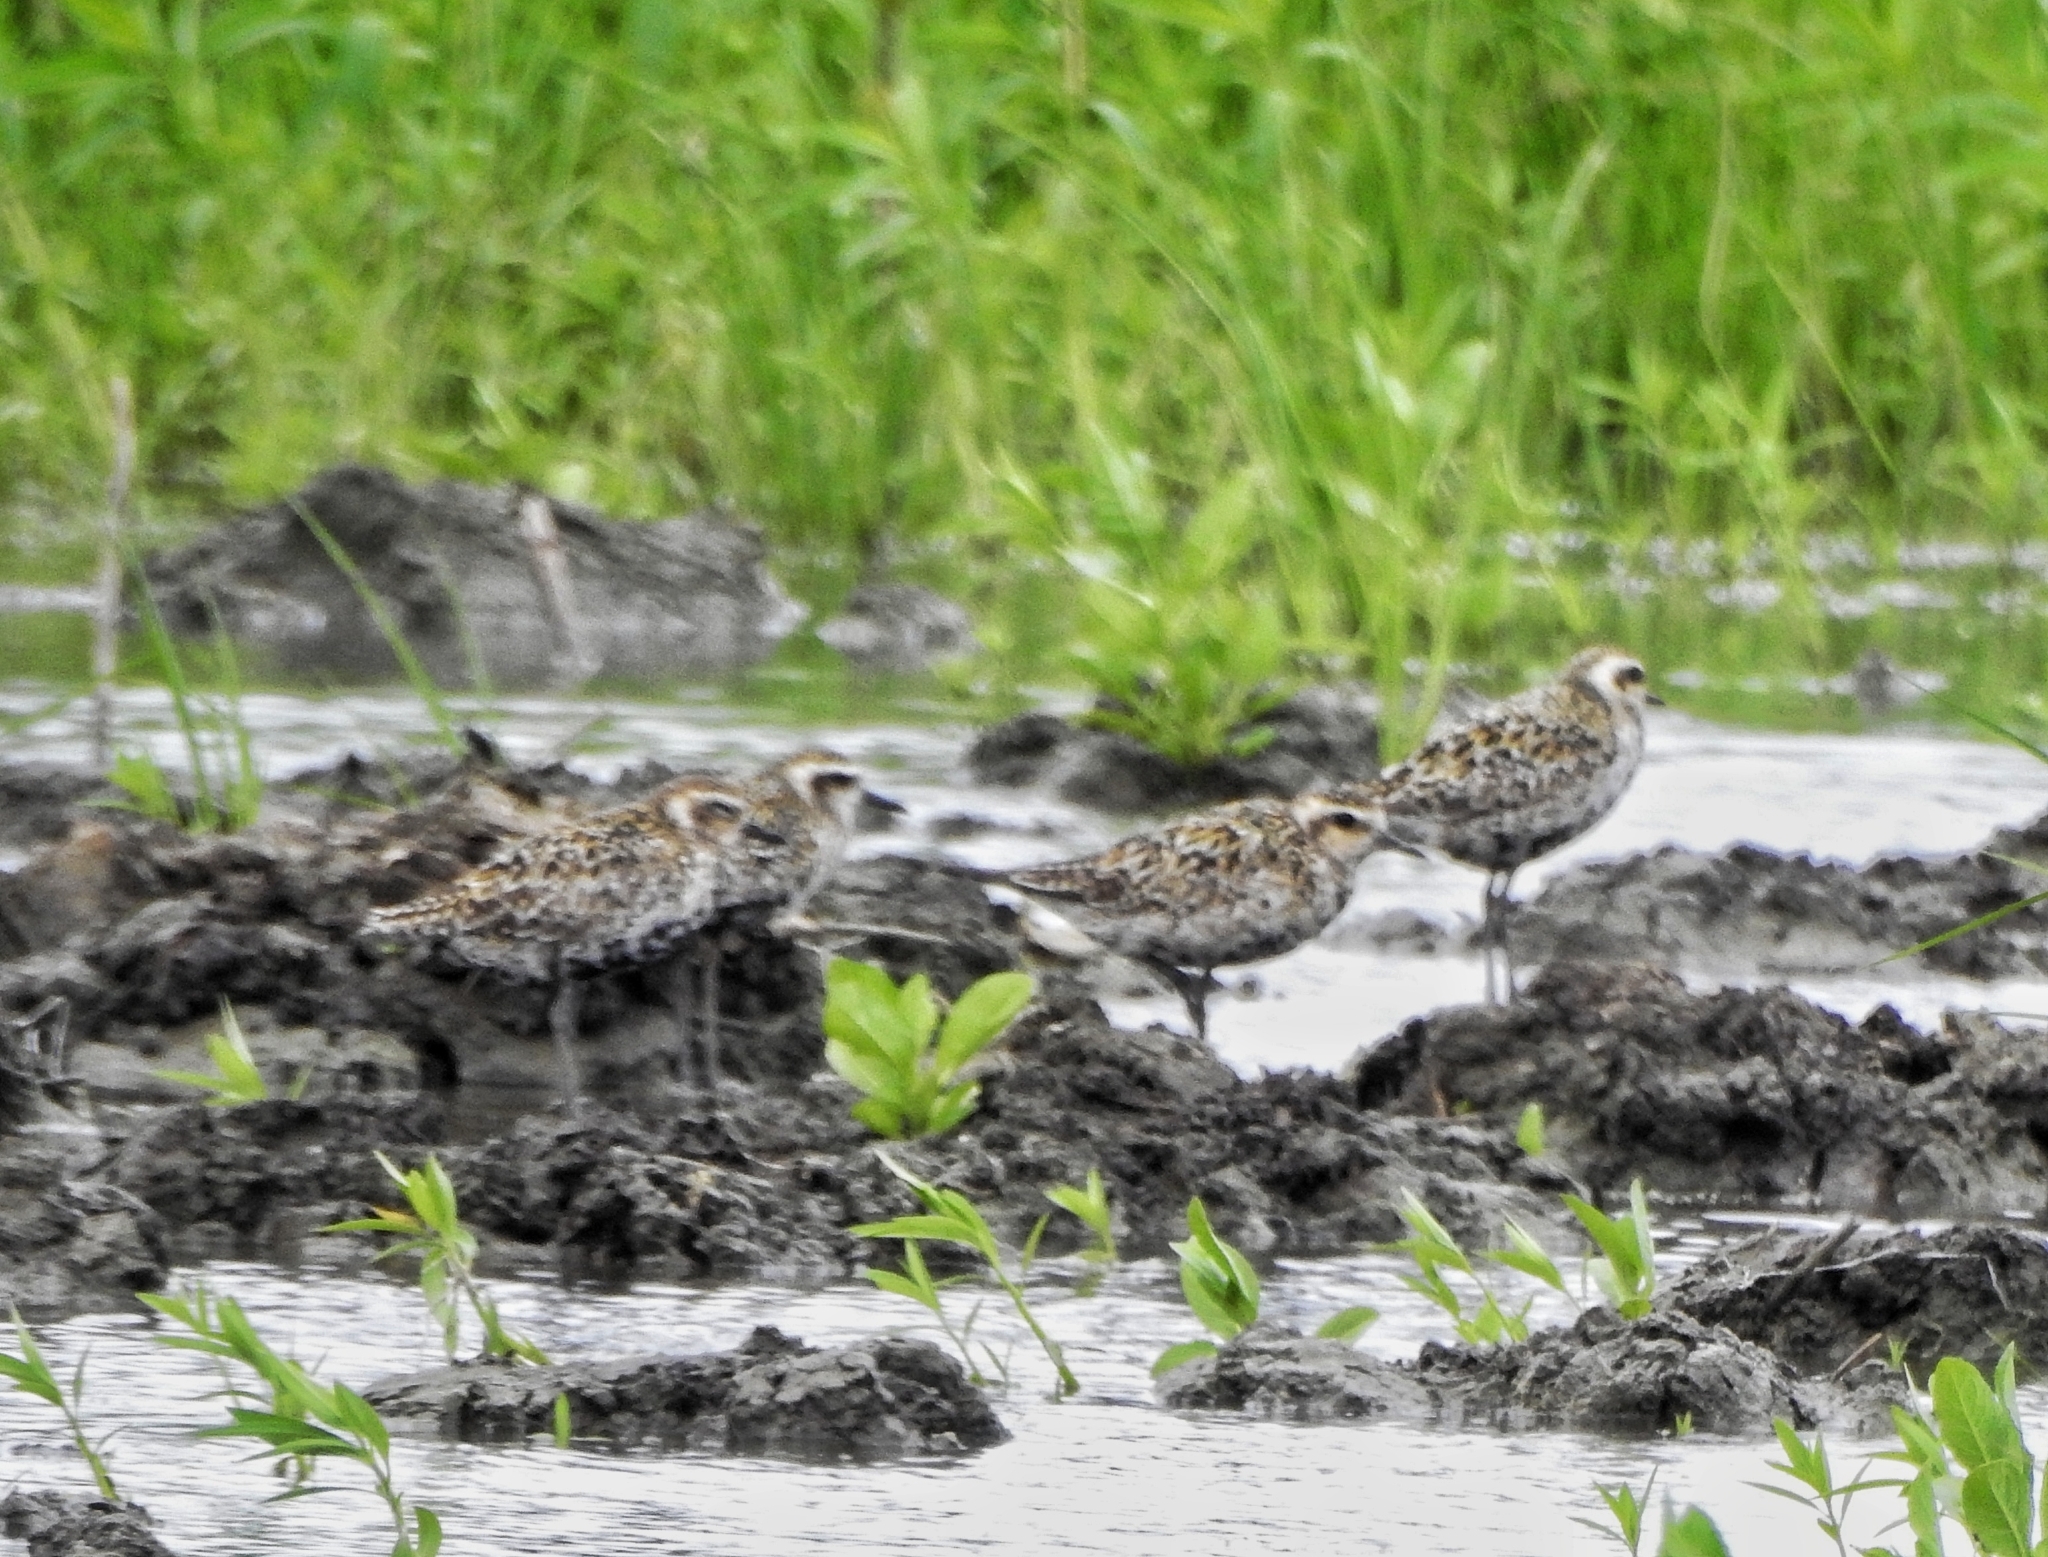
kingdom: Animalia
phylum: Chordata
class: Aves
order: Charadriiformes
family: Charadriidae
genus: Pluvialis
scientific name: Pluvialis fulva
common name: Pacific golden plover
